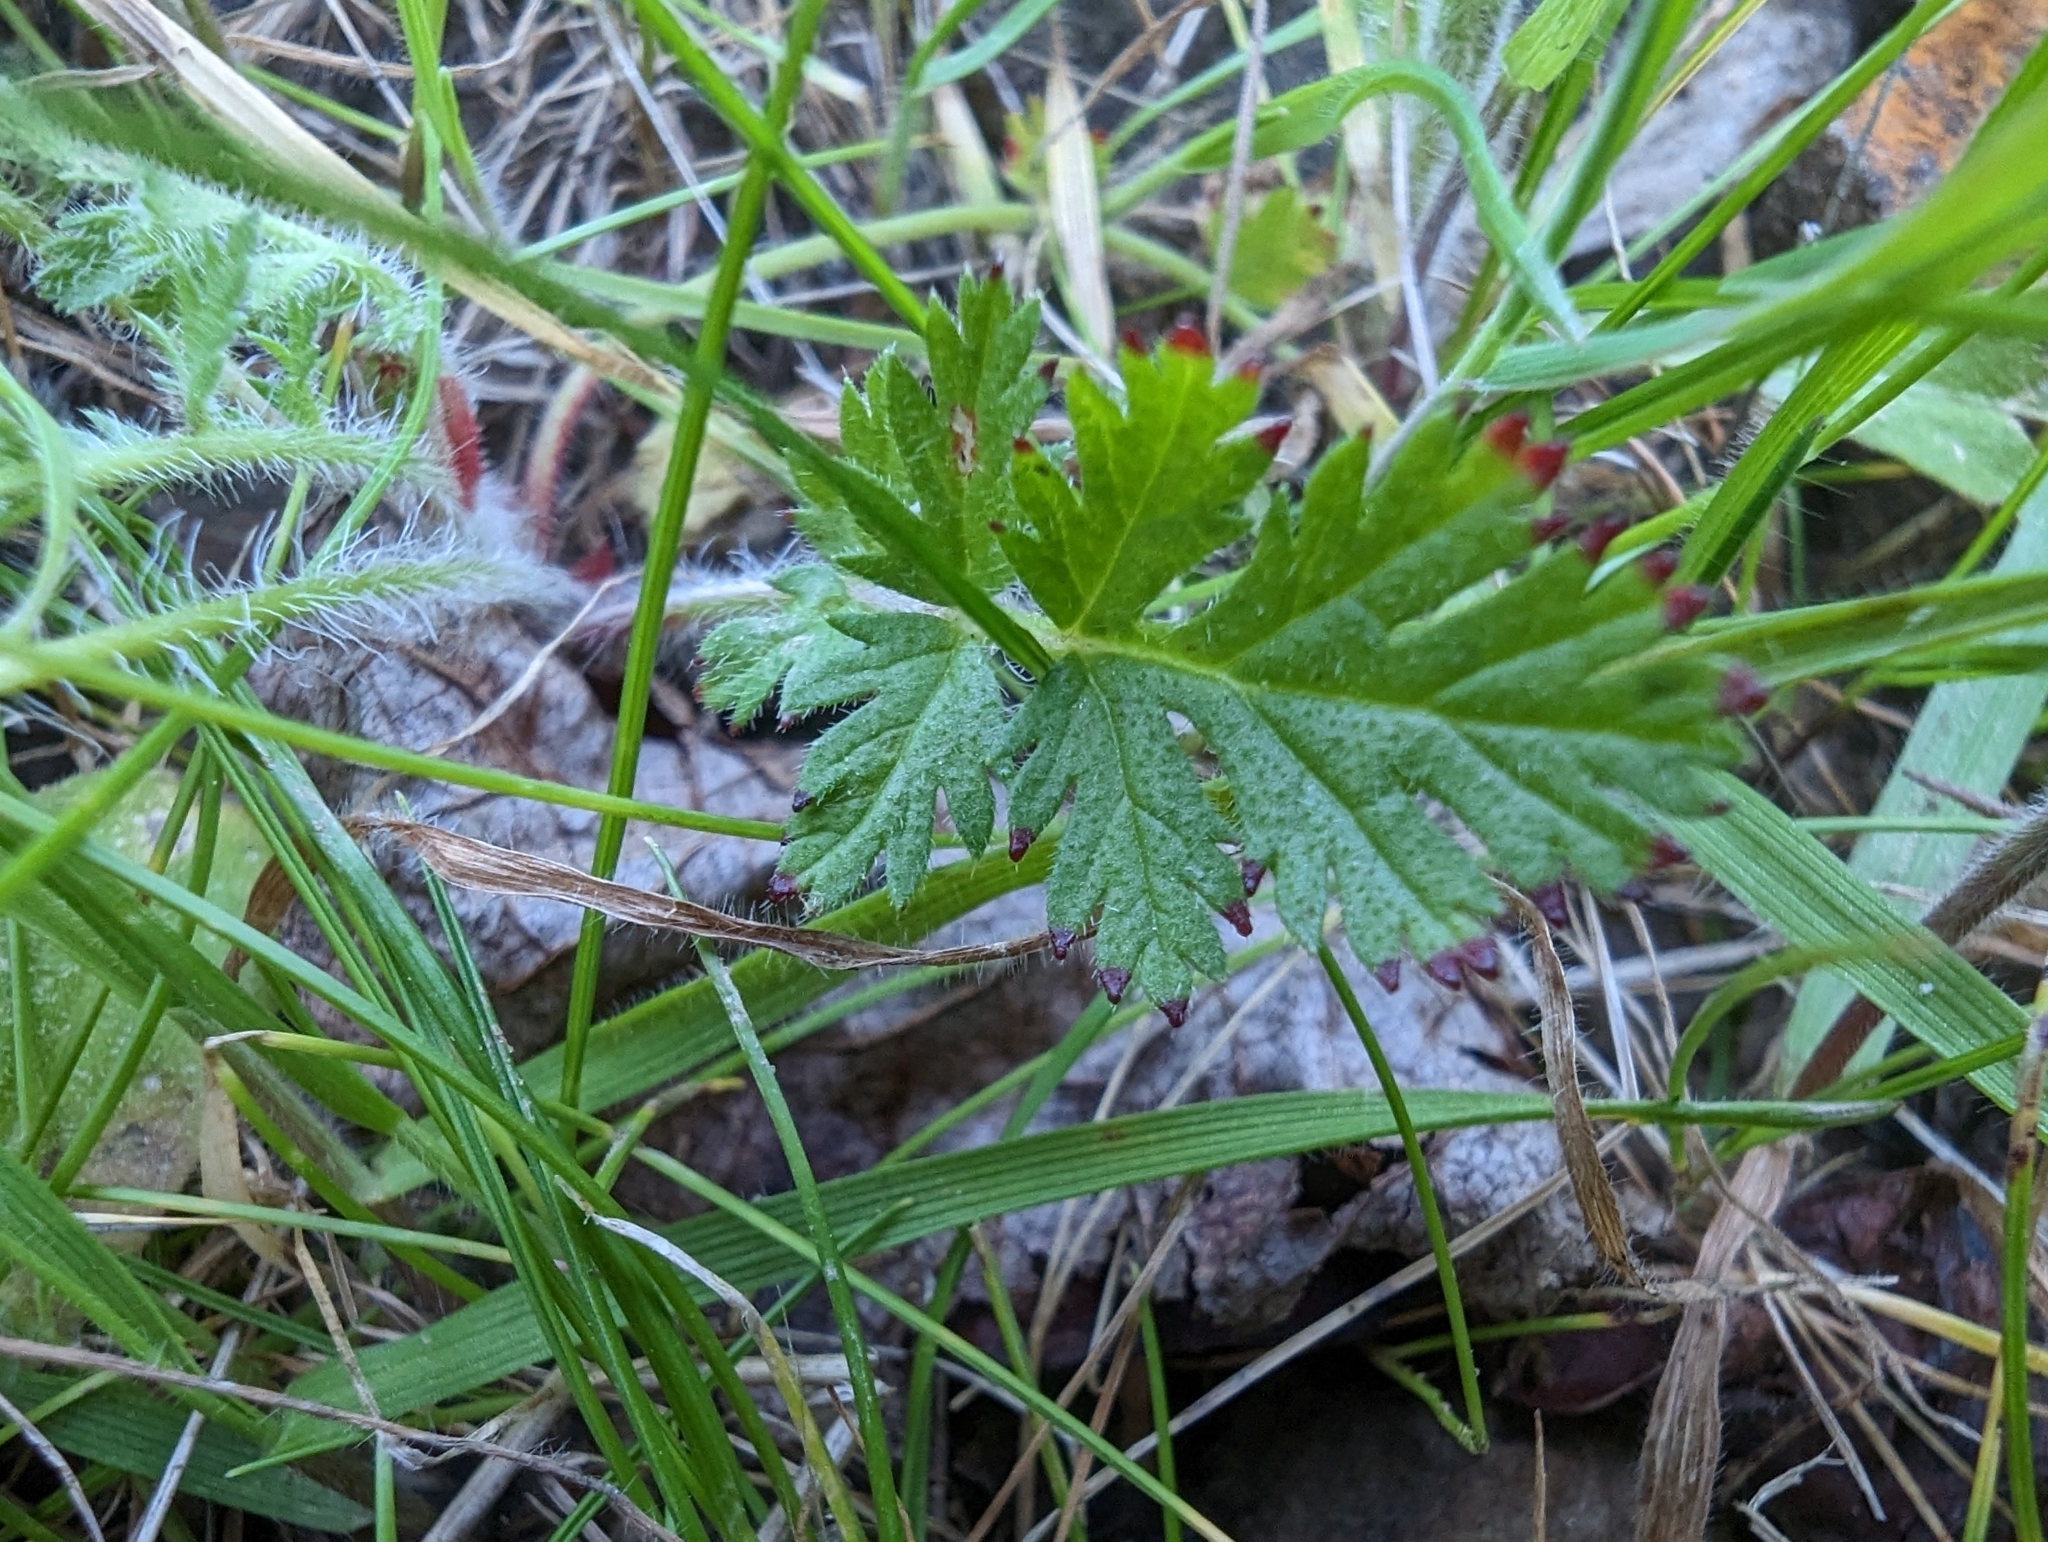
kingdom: Plantae
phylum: Tracheophyta
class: Magnoliopsida
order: Geraniales
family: Geraniaceae
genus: Erodium
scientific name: Erodium cicutarium
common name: Common stork's-bill
